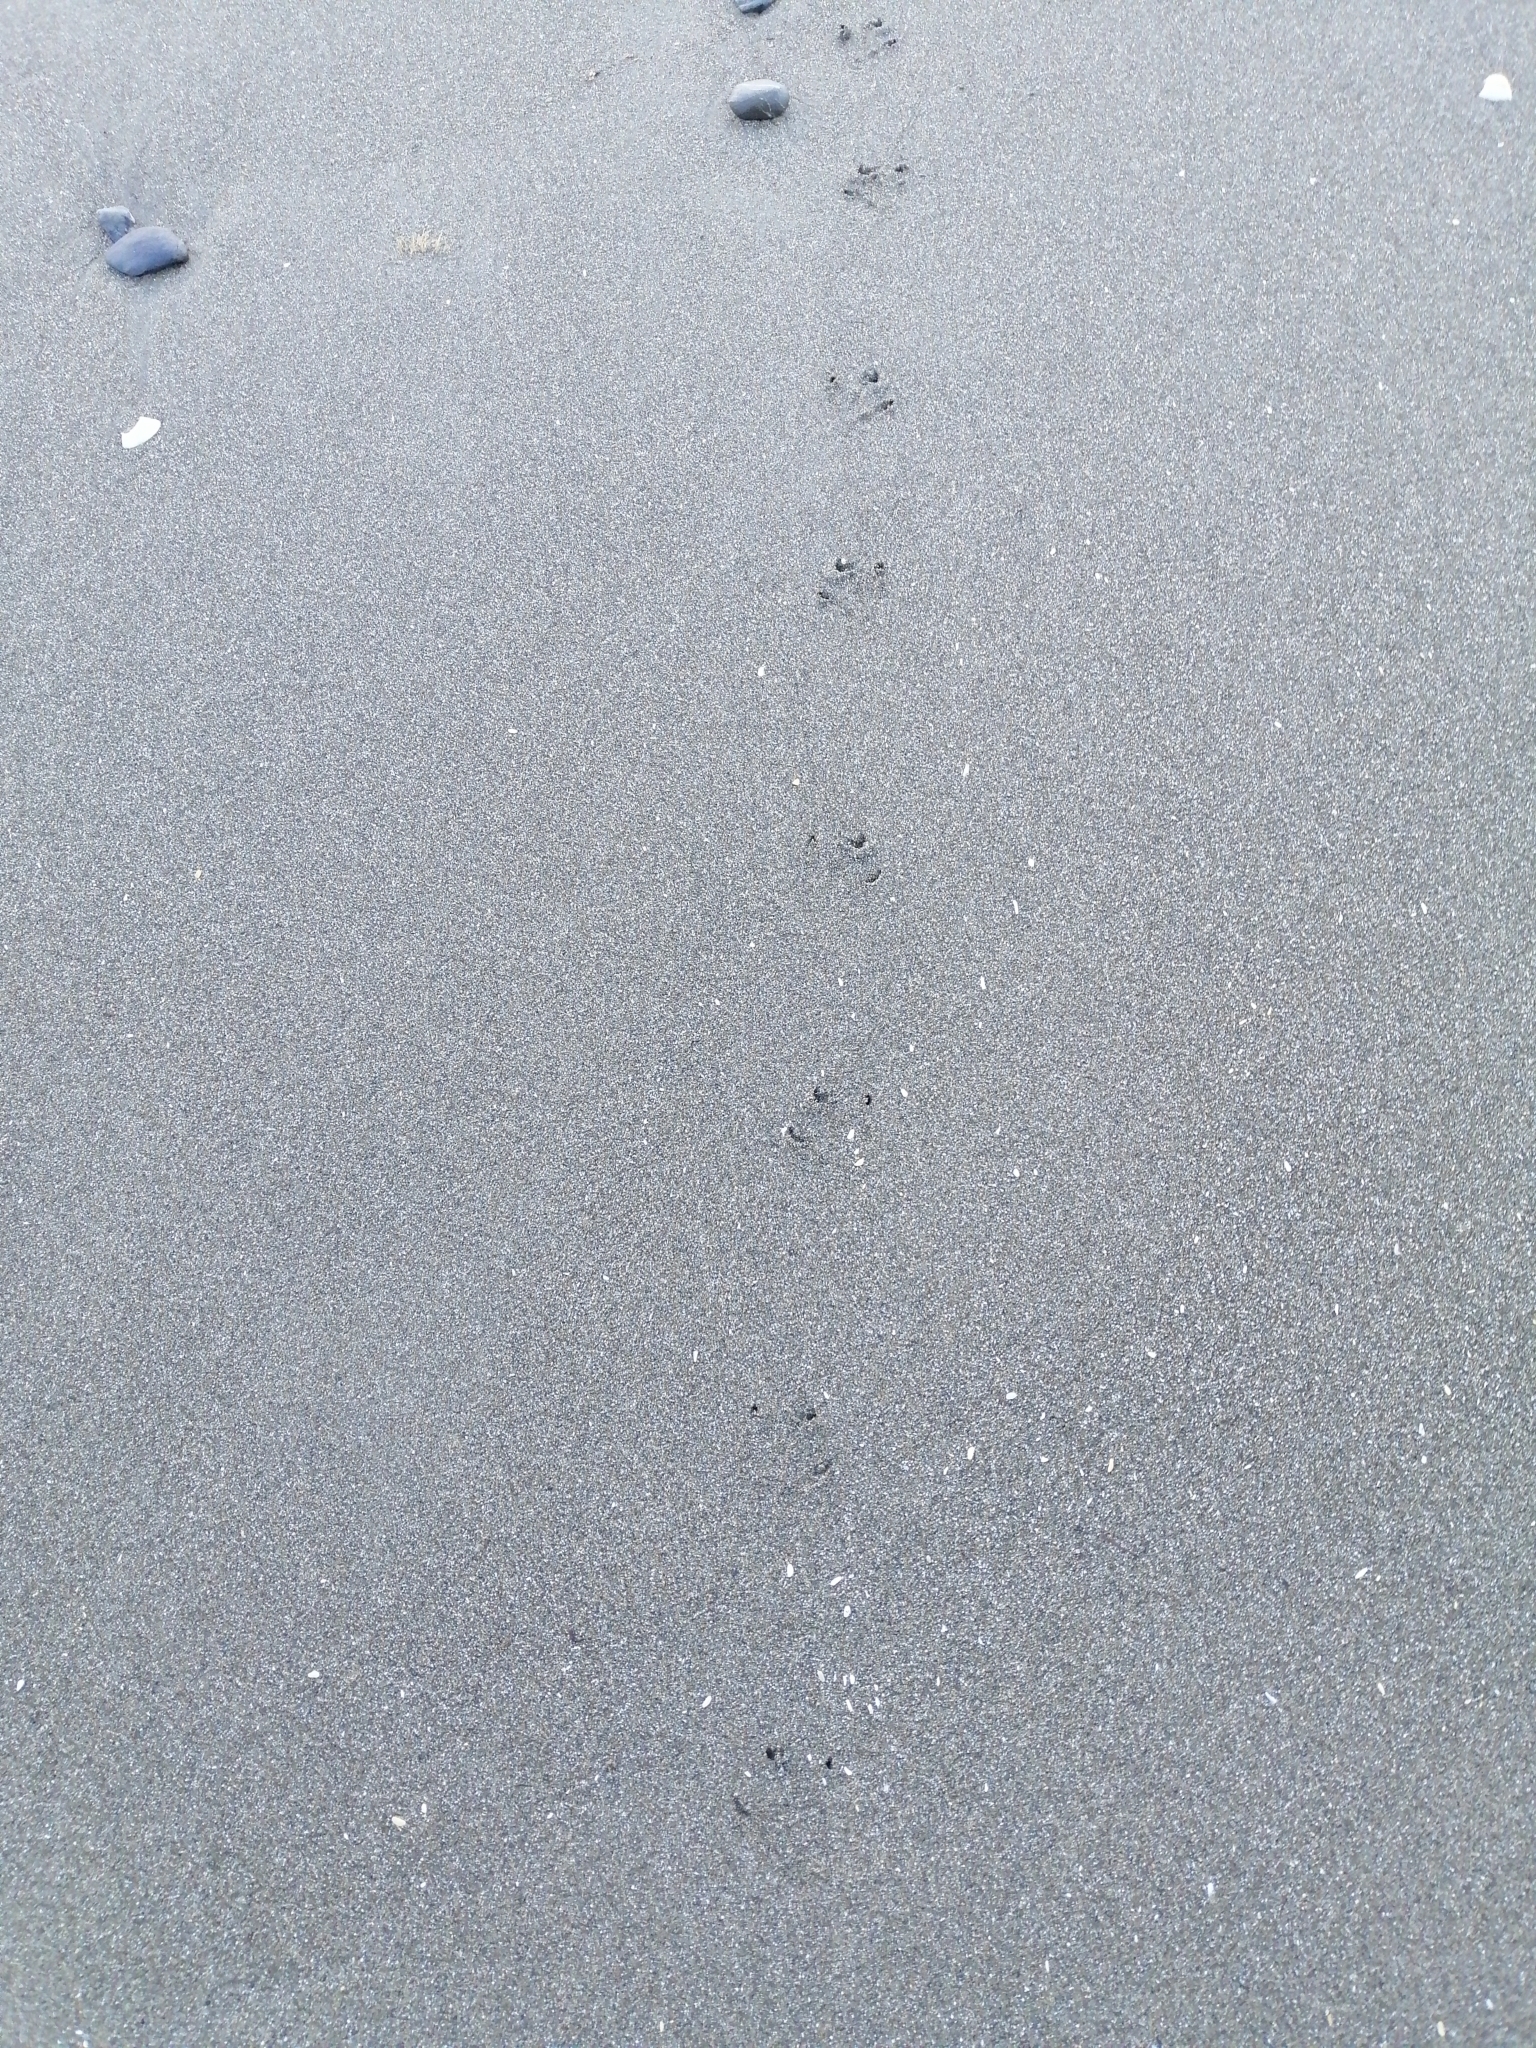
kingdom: Animalia
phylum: Chordata
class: Aves
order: Sphenisciformes
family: Spheniscidae
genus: Eudyptula
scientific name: Eudyptula minor
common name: Little penguin
